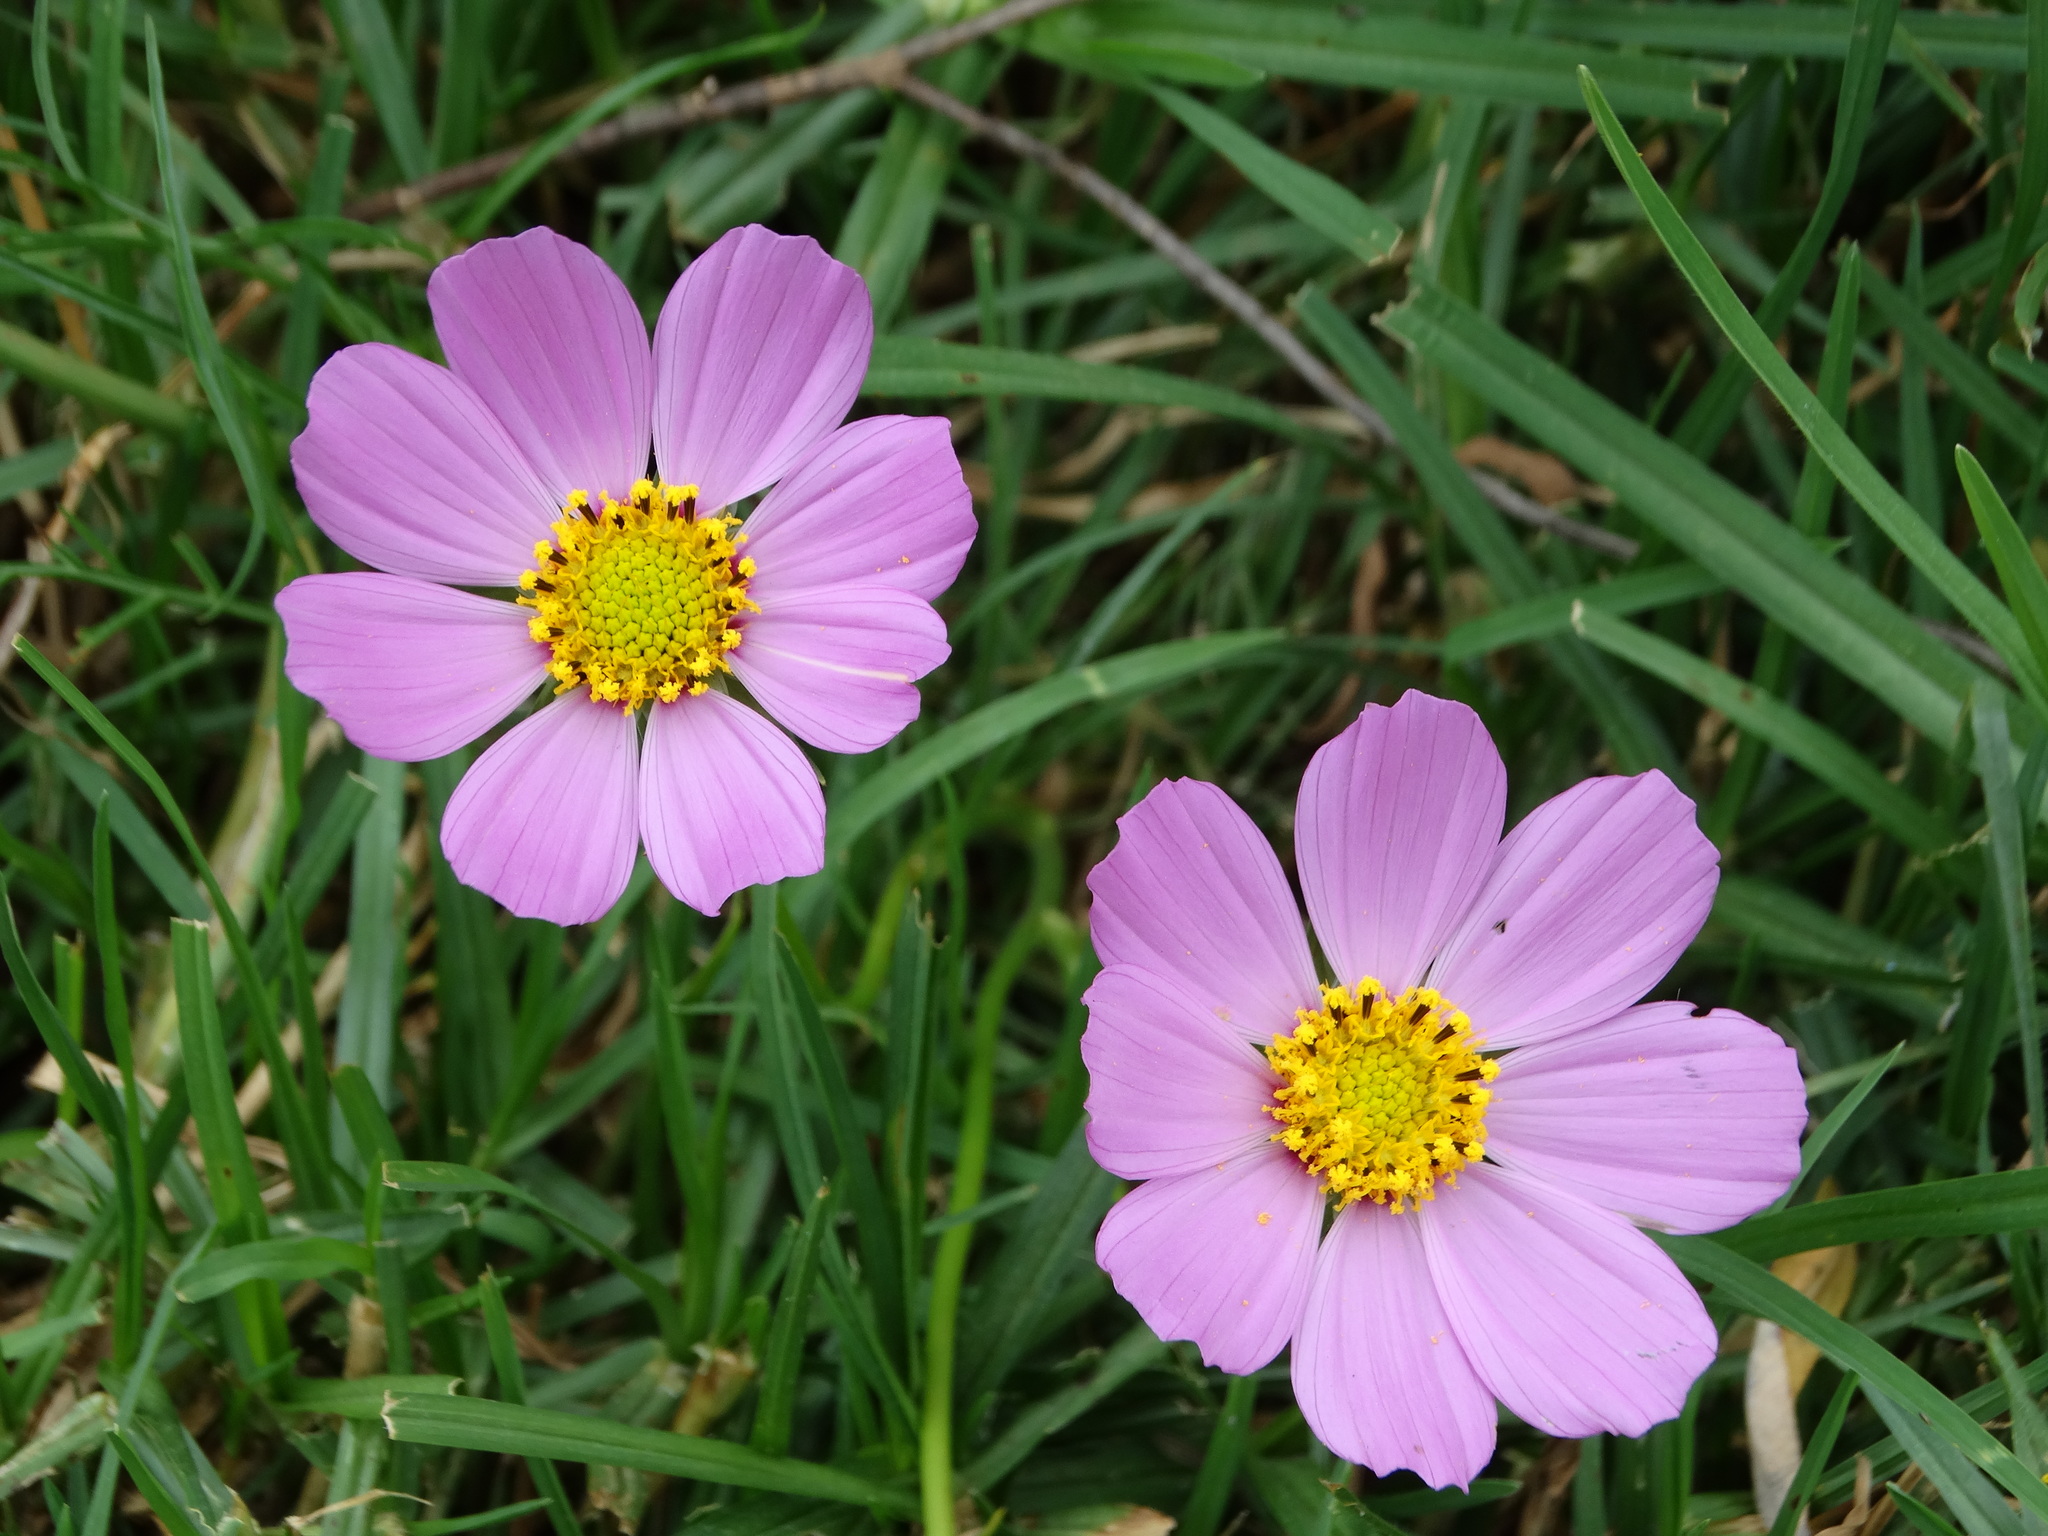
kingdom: Plantae
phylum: Tracheophyta
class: Magnoliopsida
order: Asterales
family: Asteraceae
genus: Cosmos
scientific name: Cosmos bipinnatus
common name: Garden cosmos
